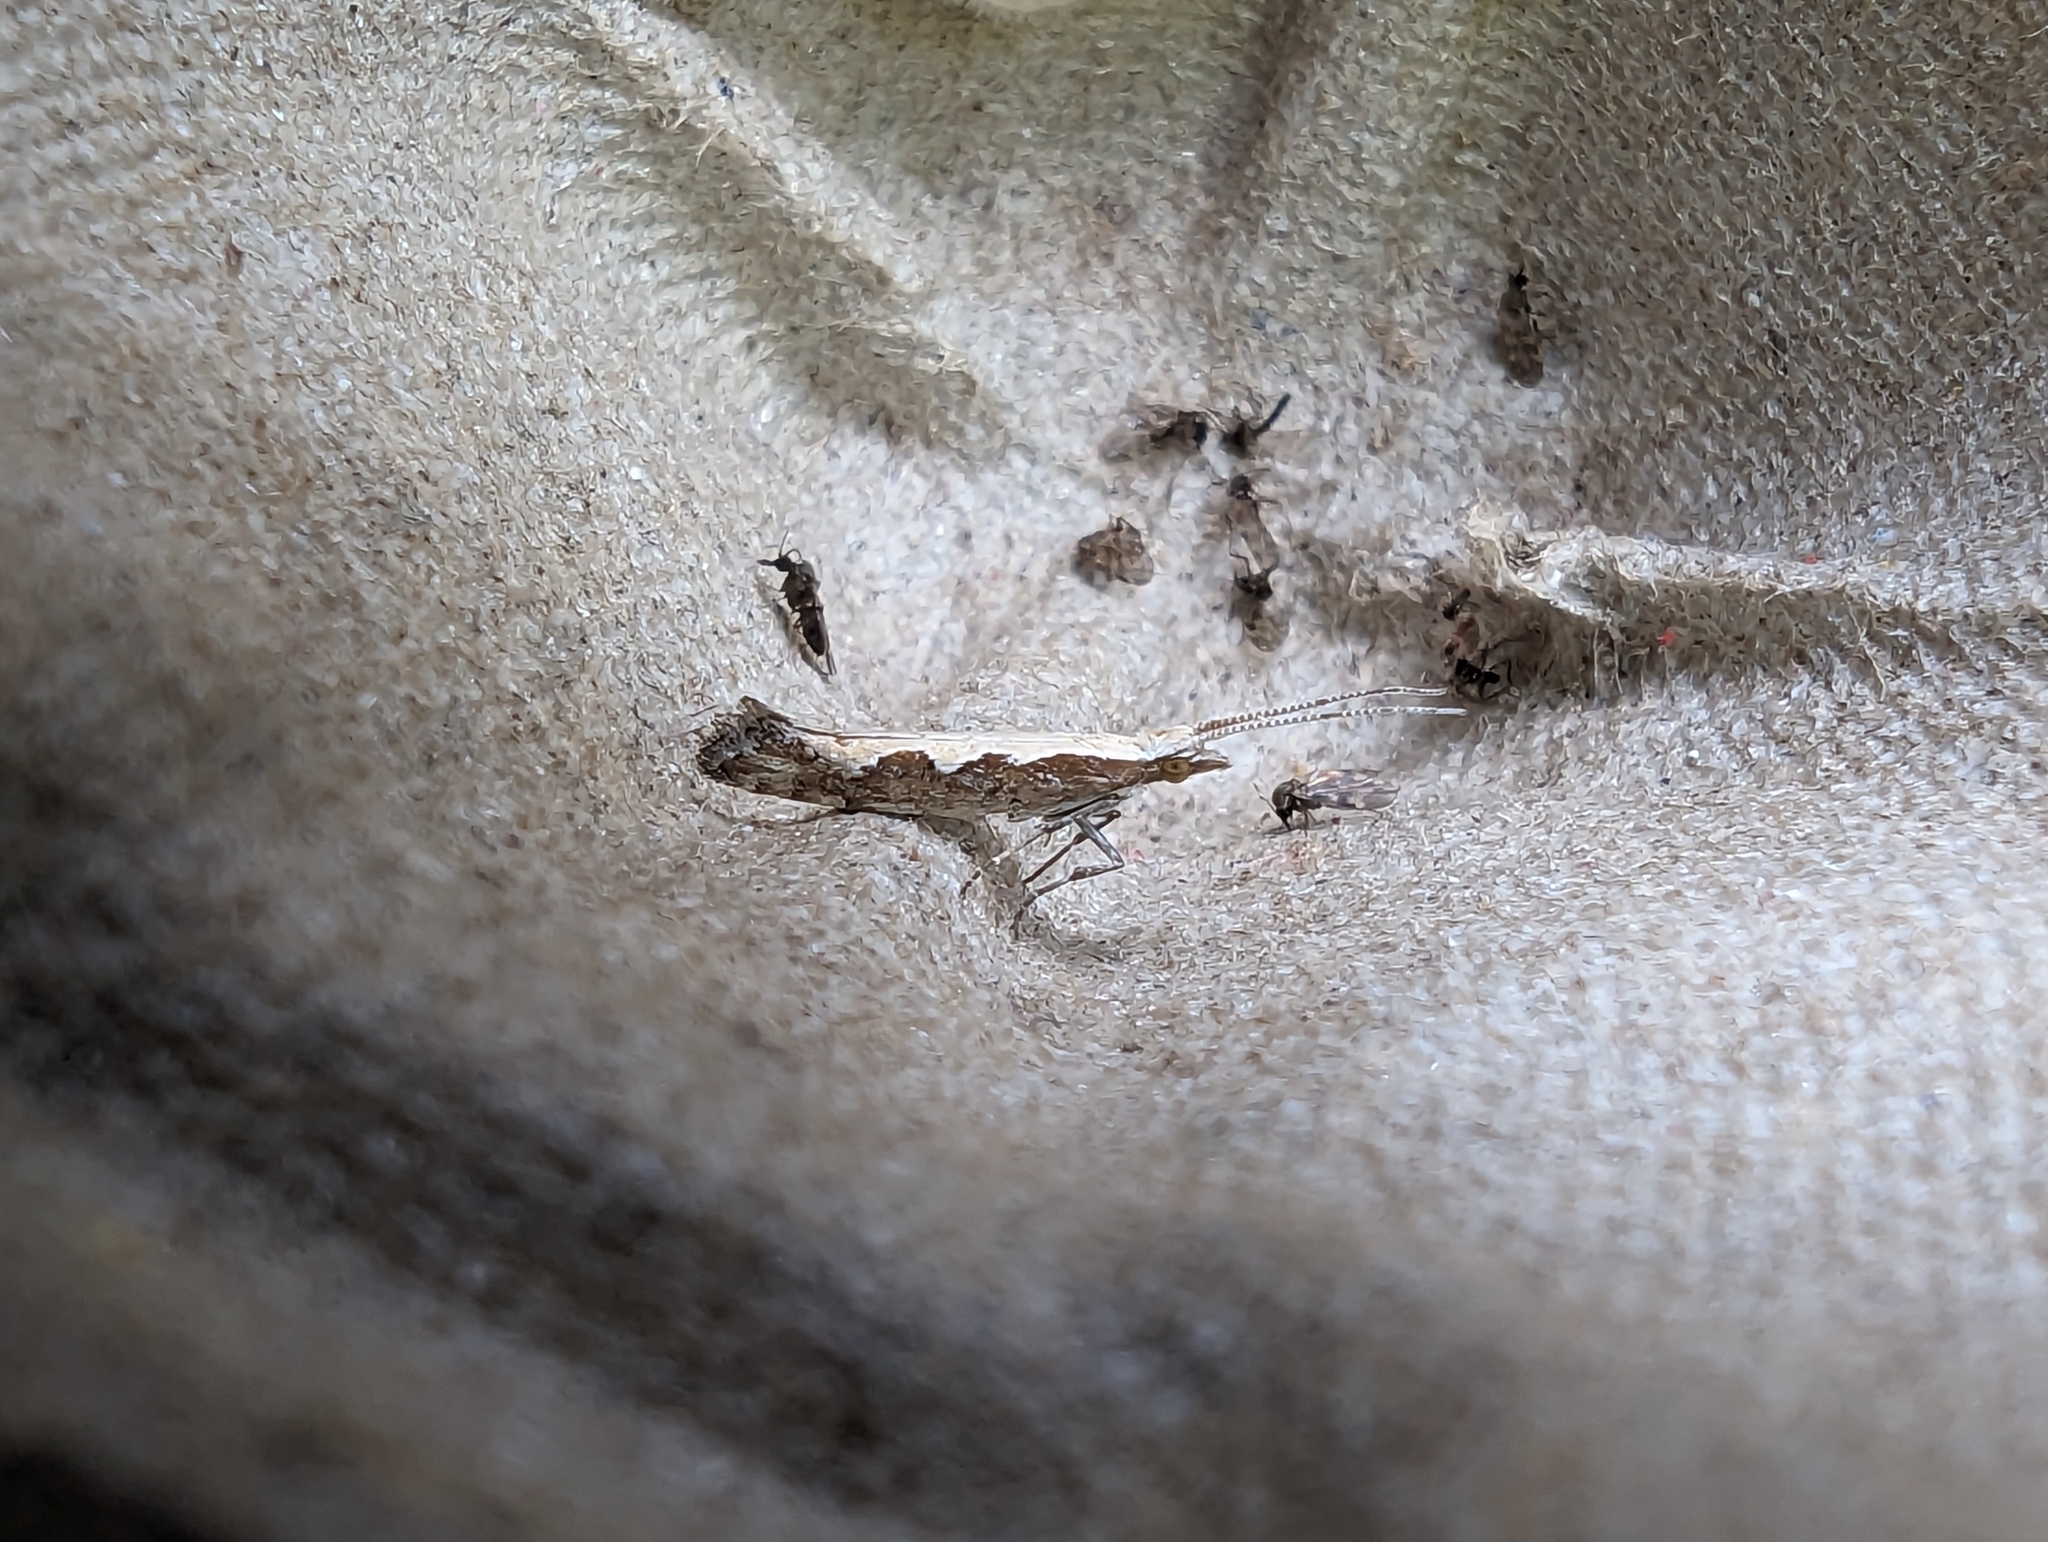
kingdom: Animalia
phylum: Arthropoda
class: Insecta
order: Lepidoptera
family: Plutellidae
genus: Plutella
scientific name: Plutella xylostella
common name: Diamond-back moth
